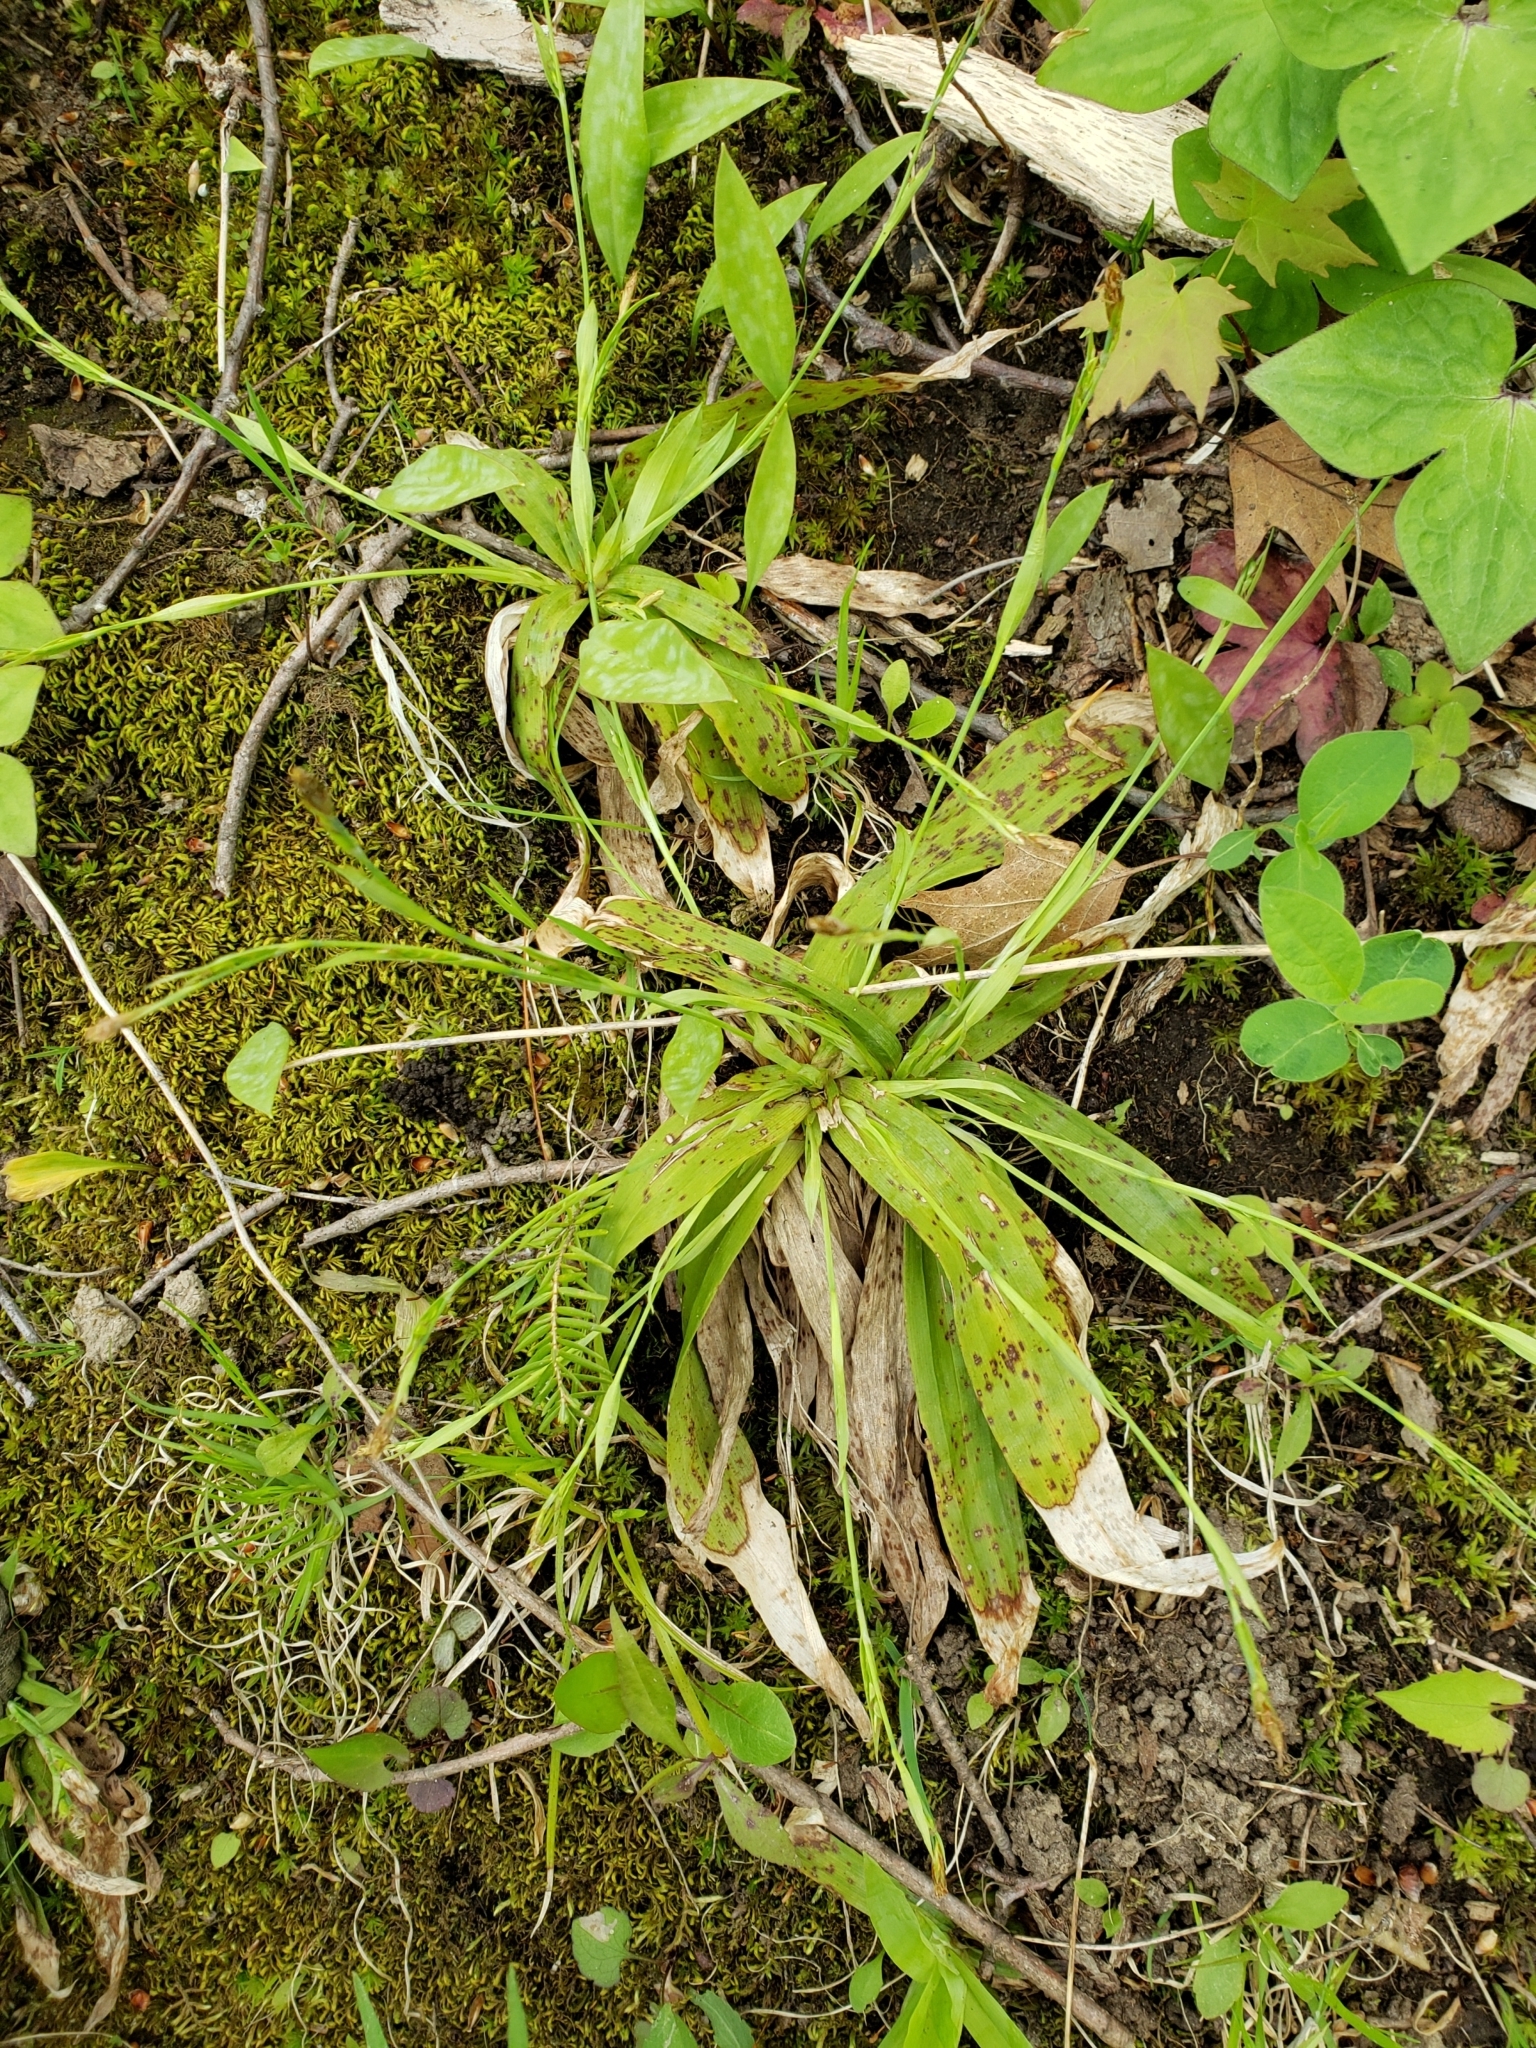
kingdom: Plantae
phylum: Tracheophyta
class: Liliopsida
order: Poales
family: Cyperaceae
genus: Carex
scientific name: Carex platyphylla
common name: Broad-leaved sedge
